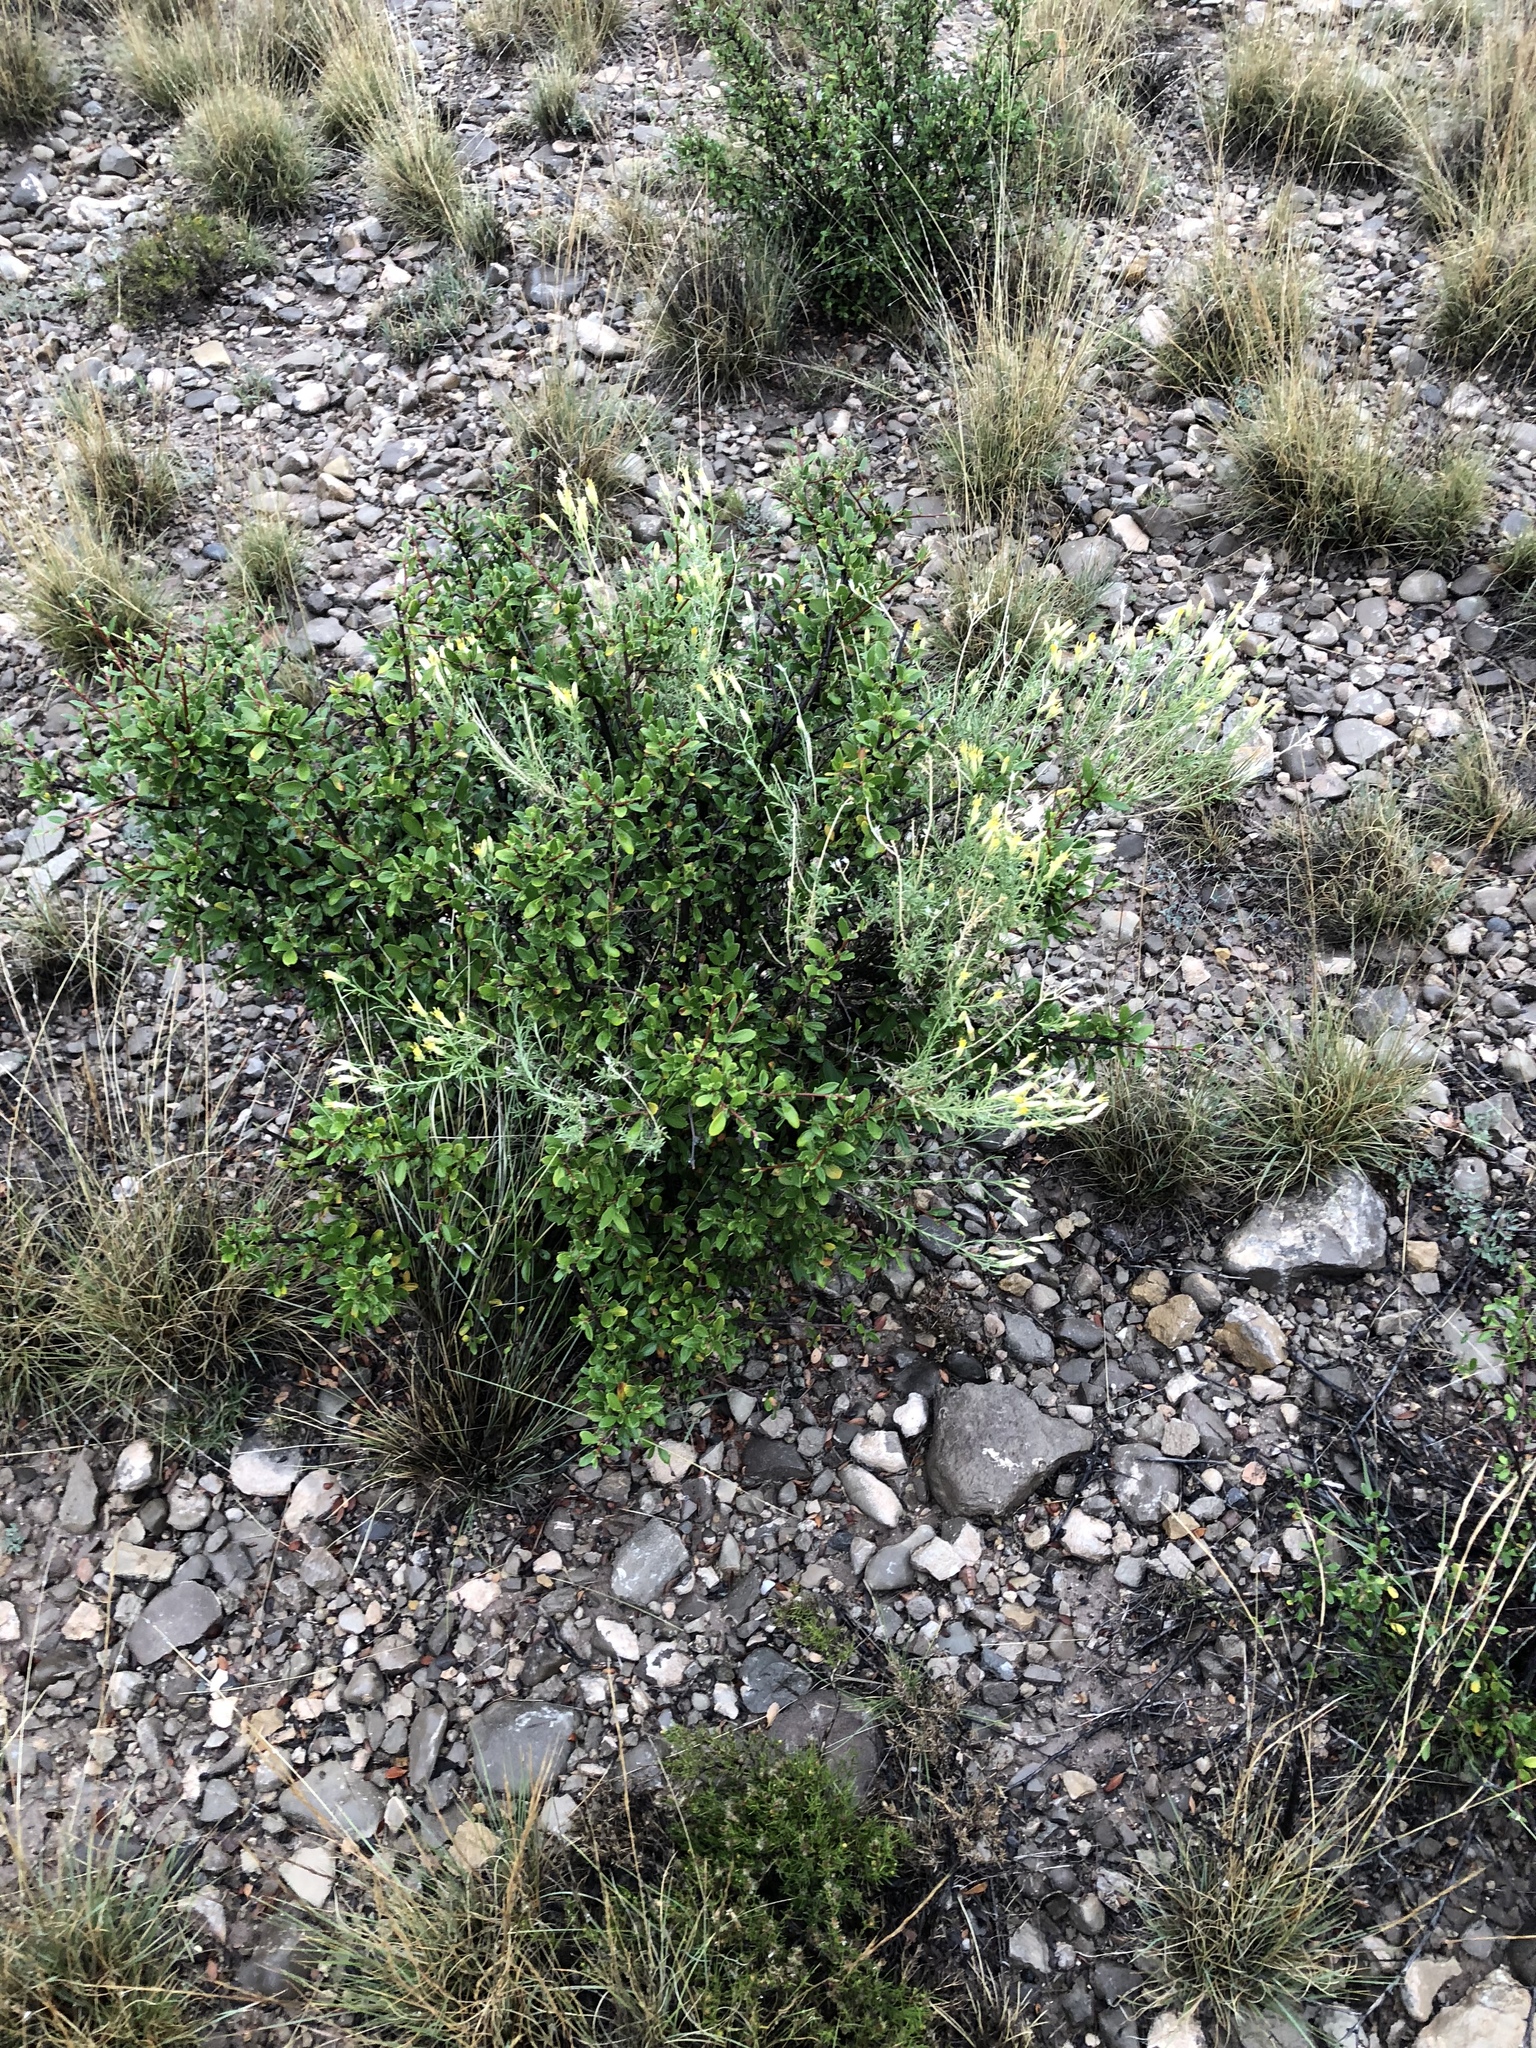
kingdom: Plantae
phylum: Tracheophyta
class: Magnoliopsida
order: Rosales
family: Rosaceae
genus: Cercocarpus
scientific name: Cercocarpus breviflorus
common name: Wright's mountain-mahogany
